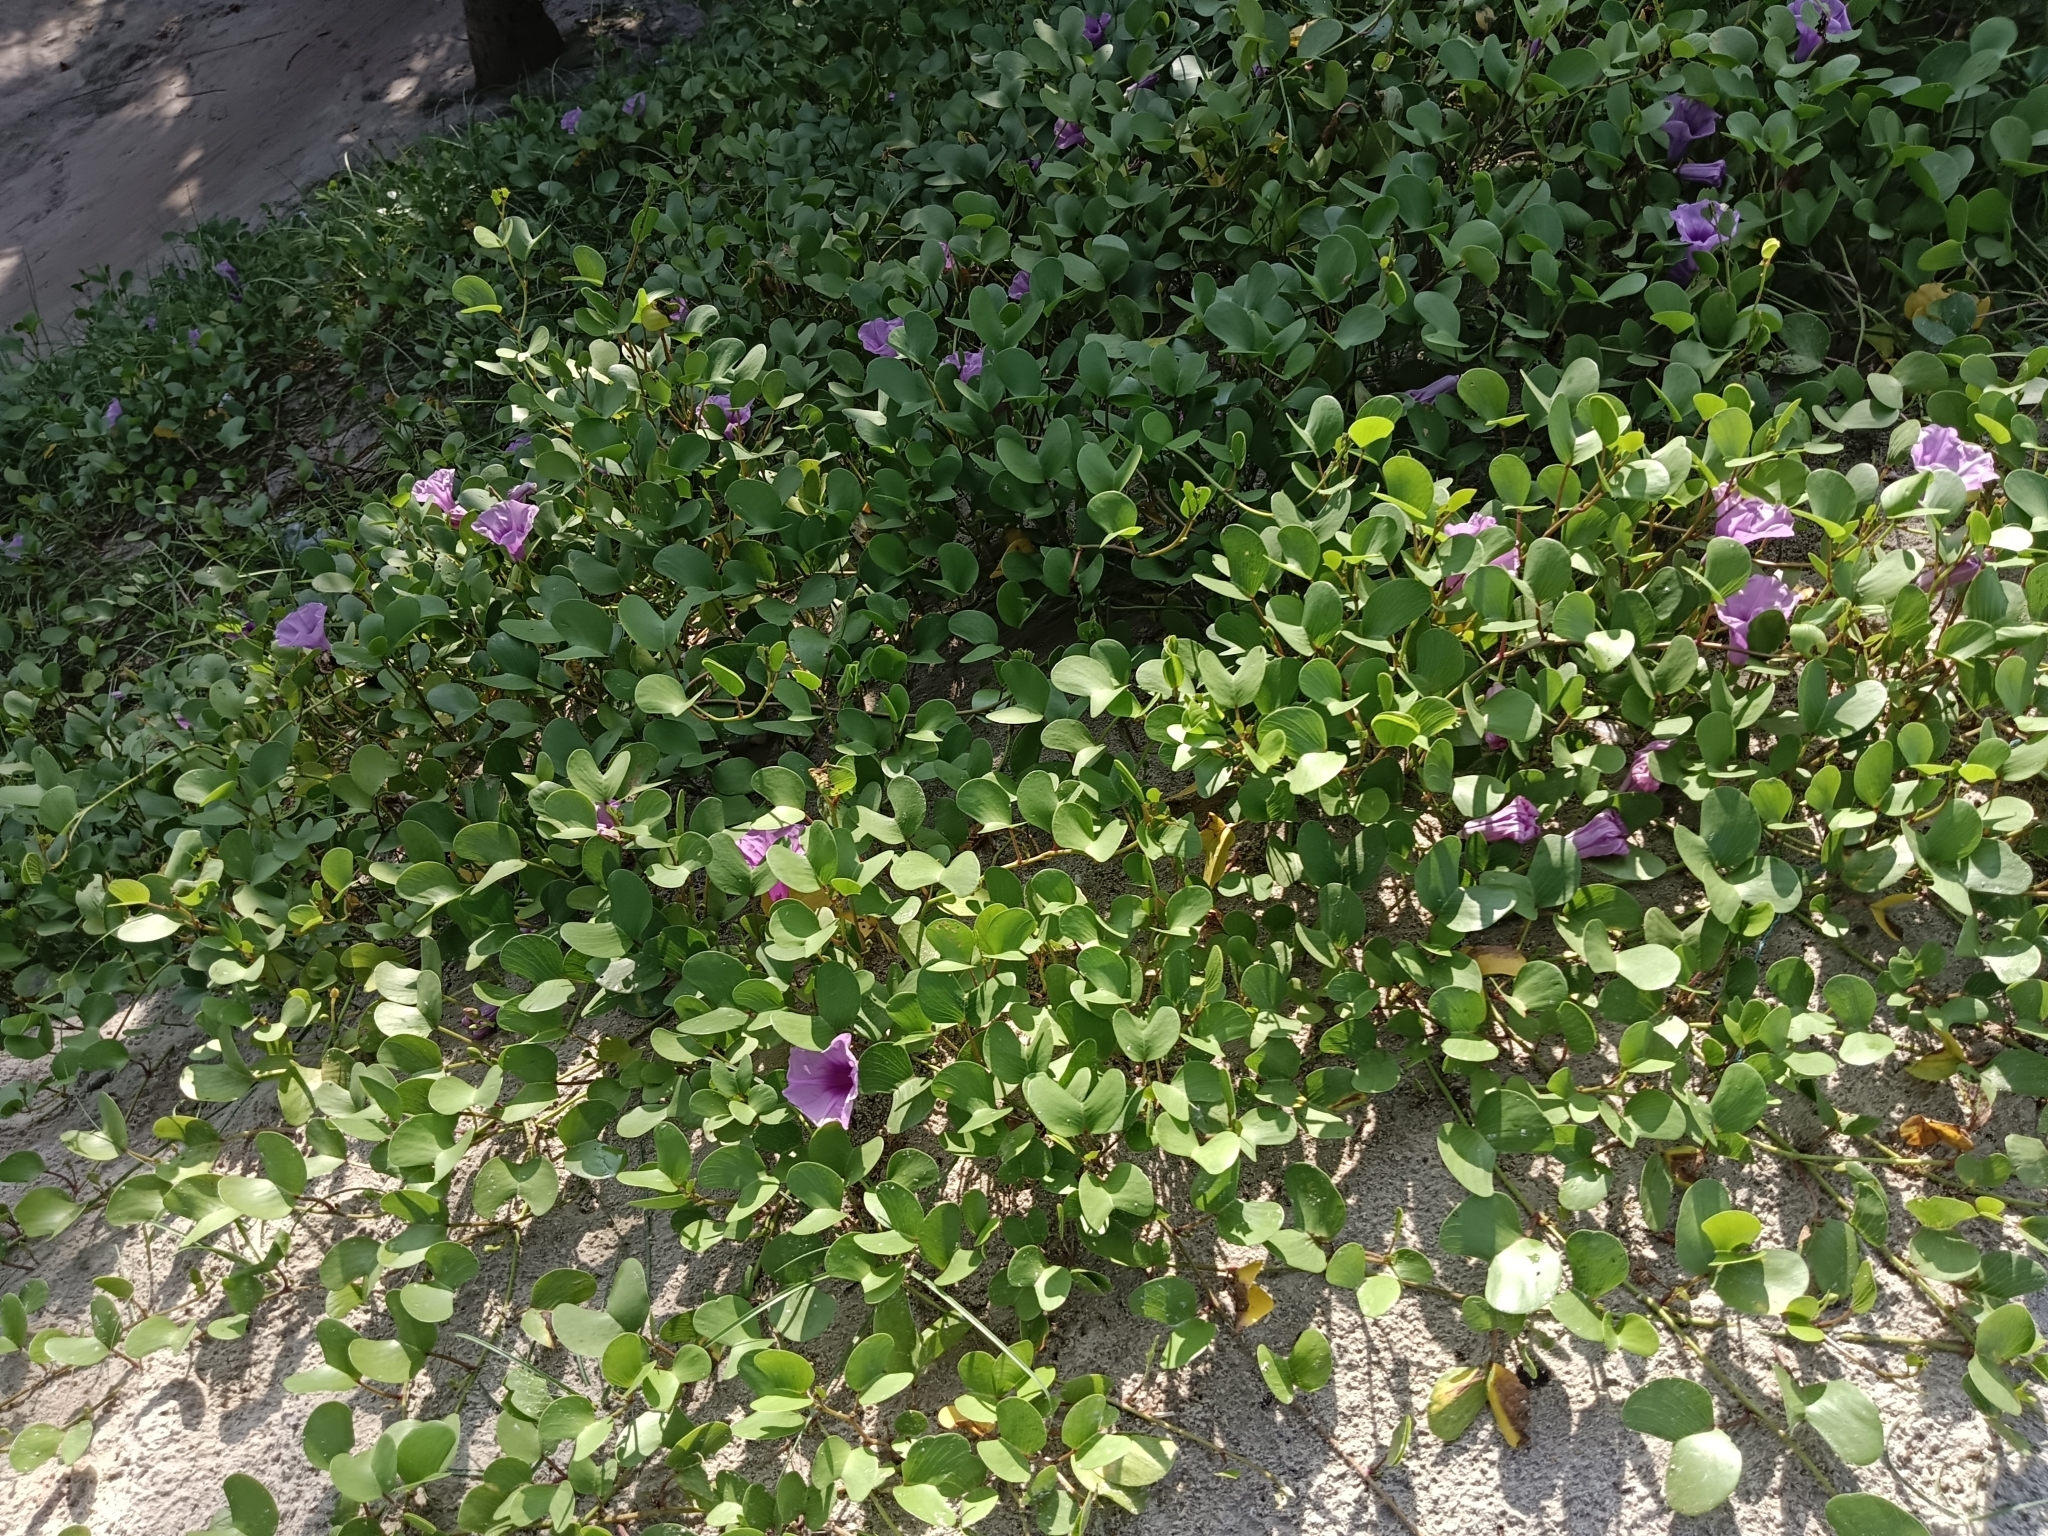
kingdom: Plantae
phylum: Tracheophyta
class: Magnoliopsida
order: Solanales
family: Convolvulaceae
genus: Ipomoea
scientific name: Ipomoea pes-caprae
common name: Beach morning glory
